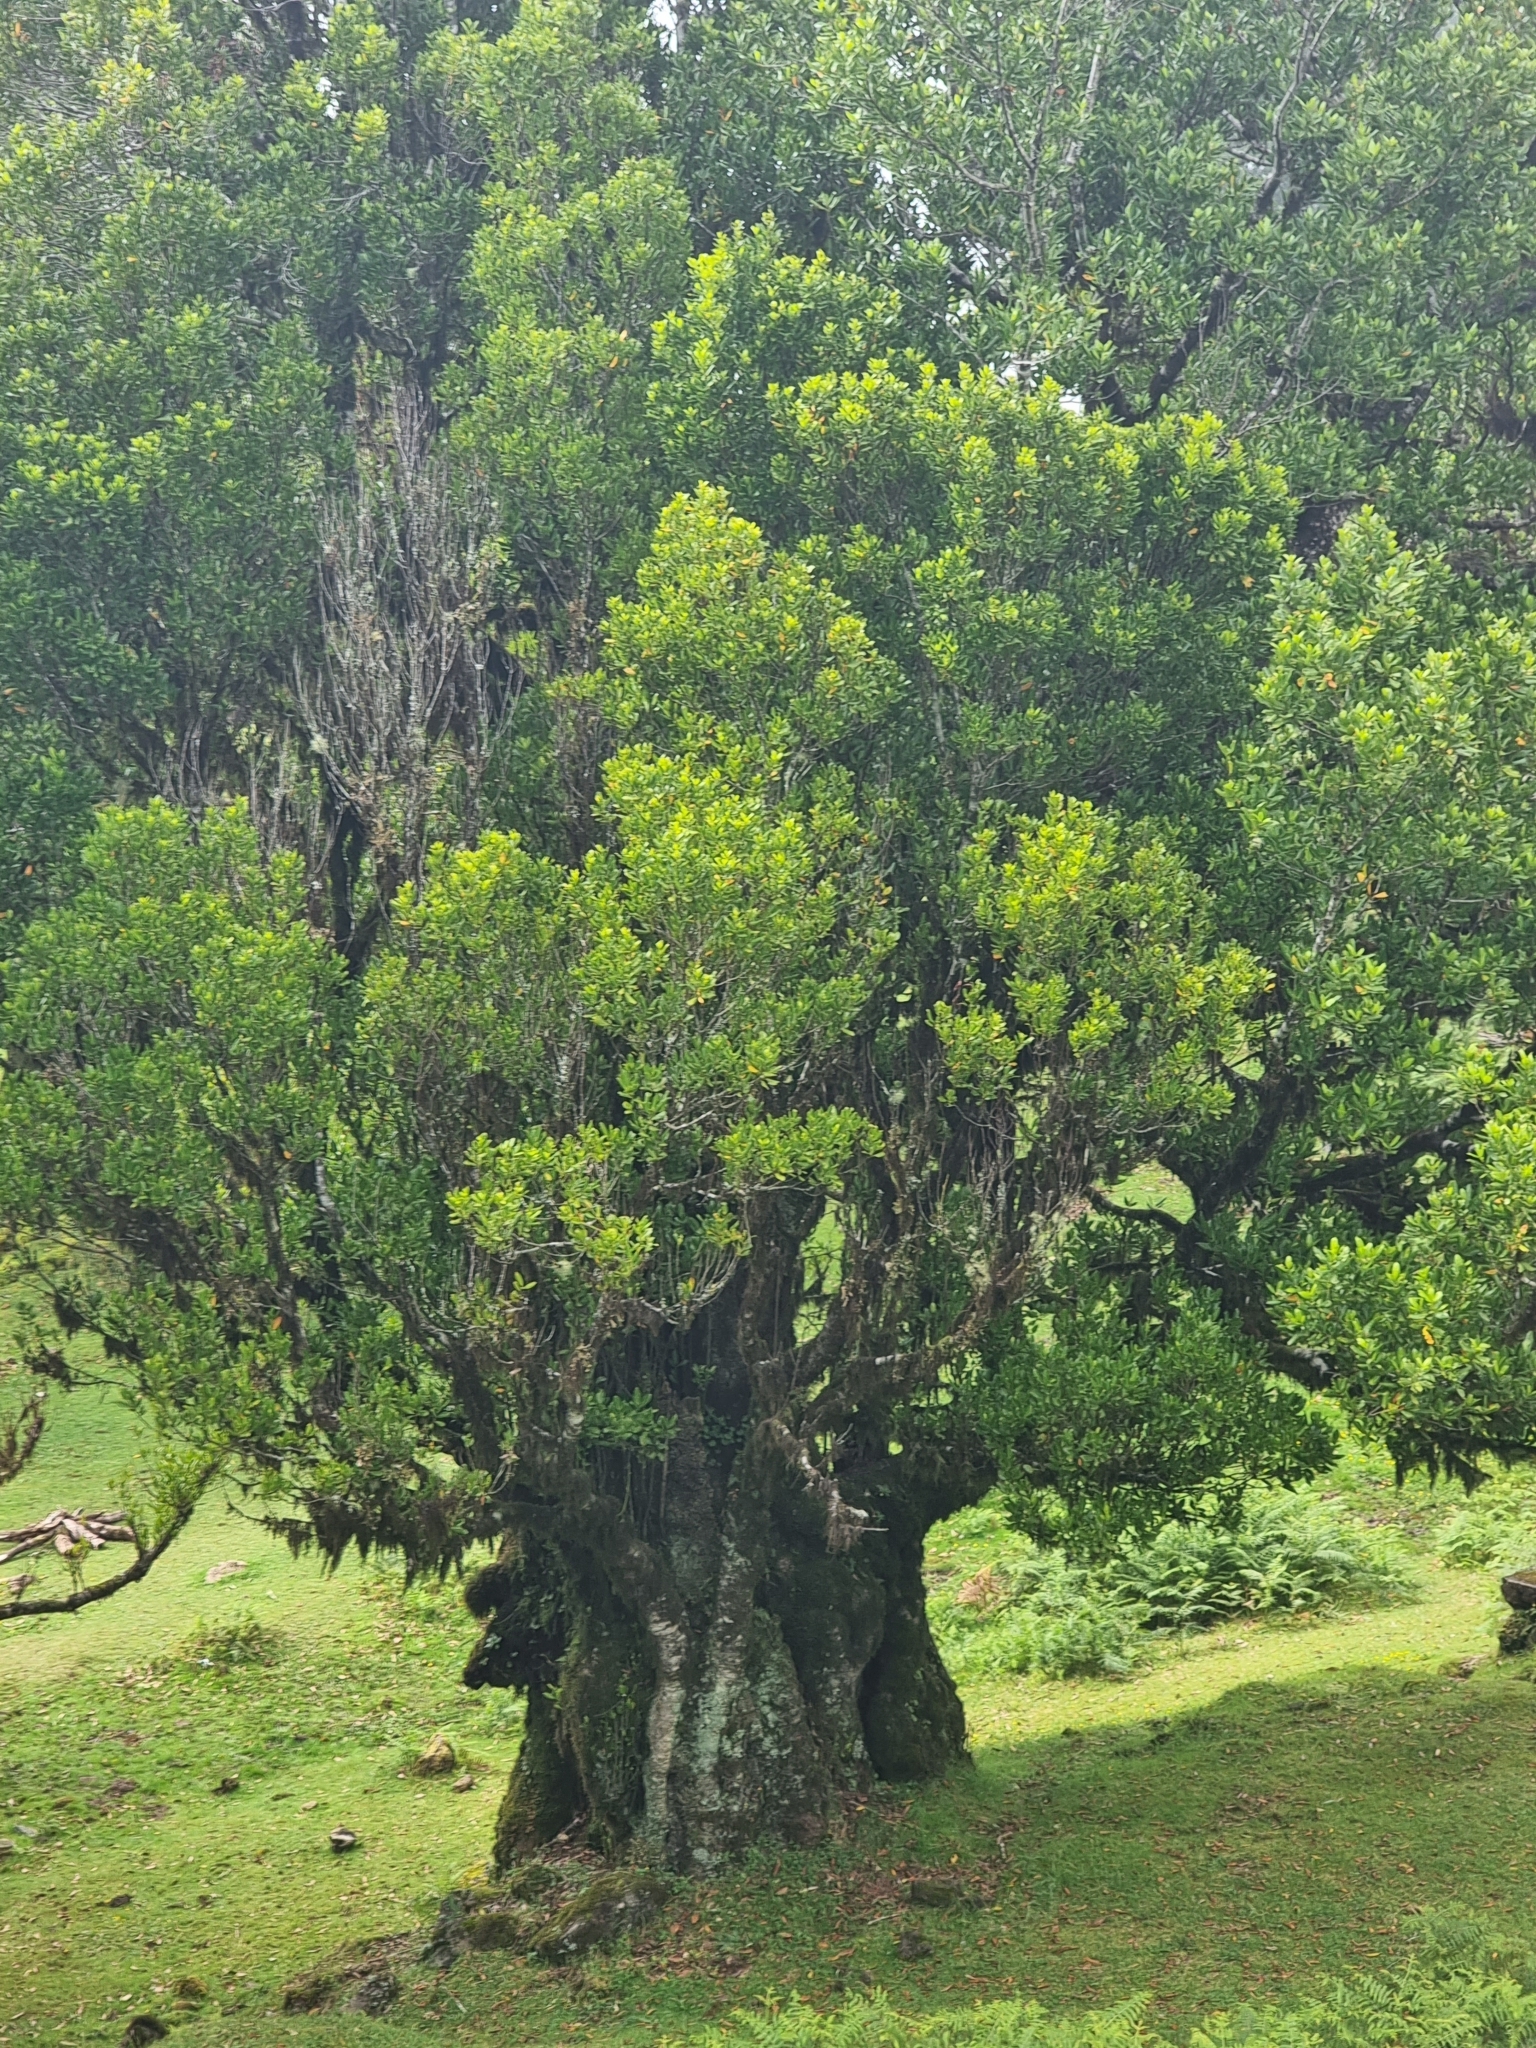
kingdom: Plantae
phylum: Tracheophyta
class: Magnoliopsida
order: Laurales
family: Lauraceae
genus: Mespilodaphne
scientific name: Mespilodaphne foetens
